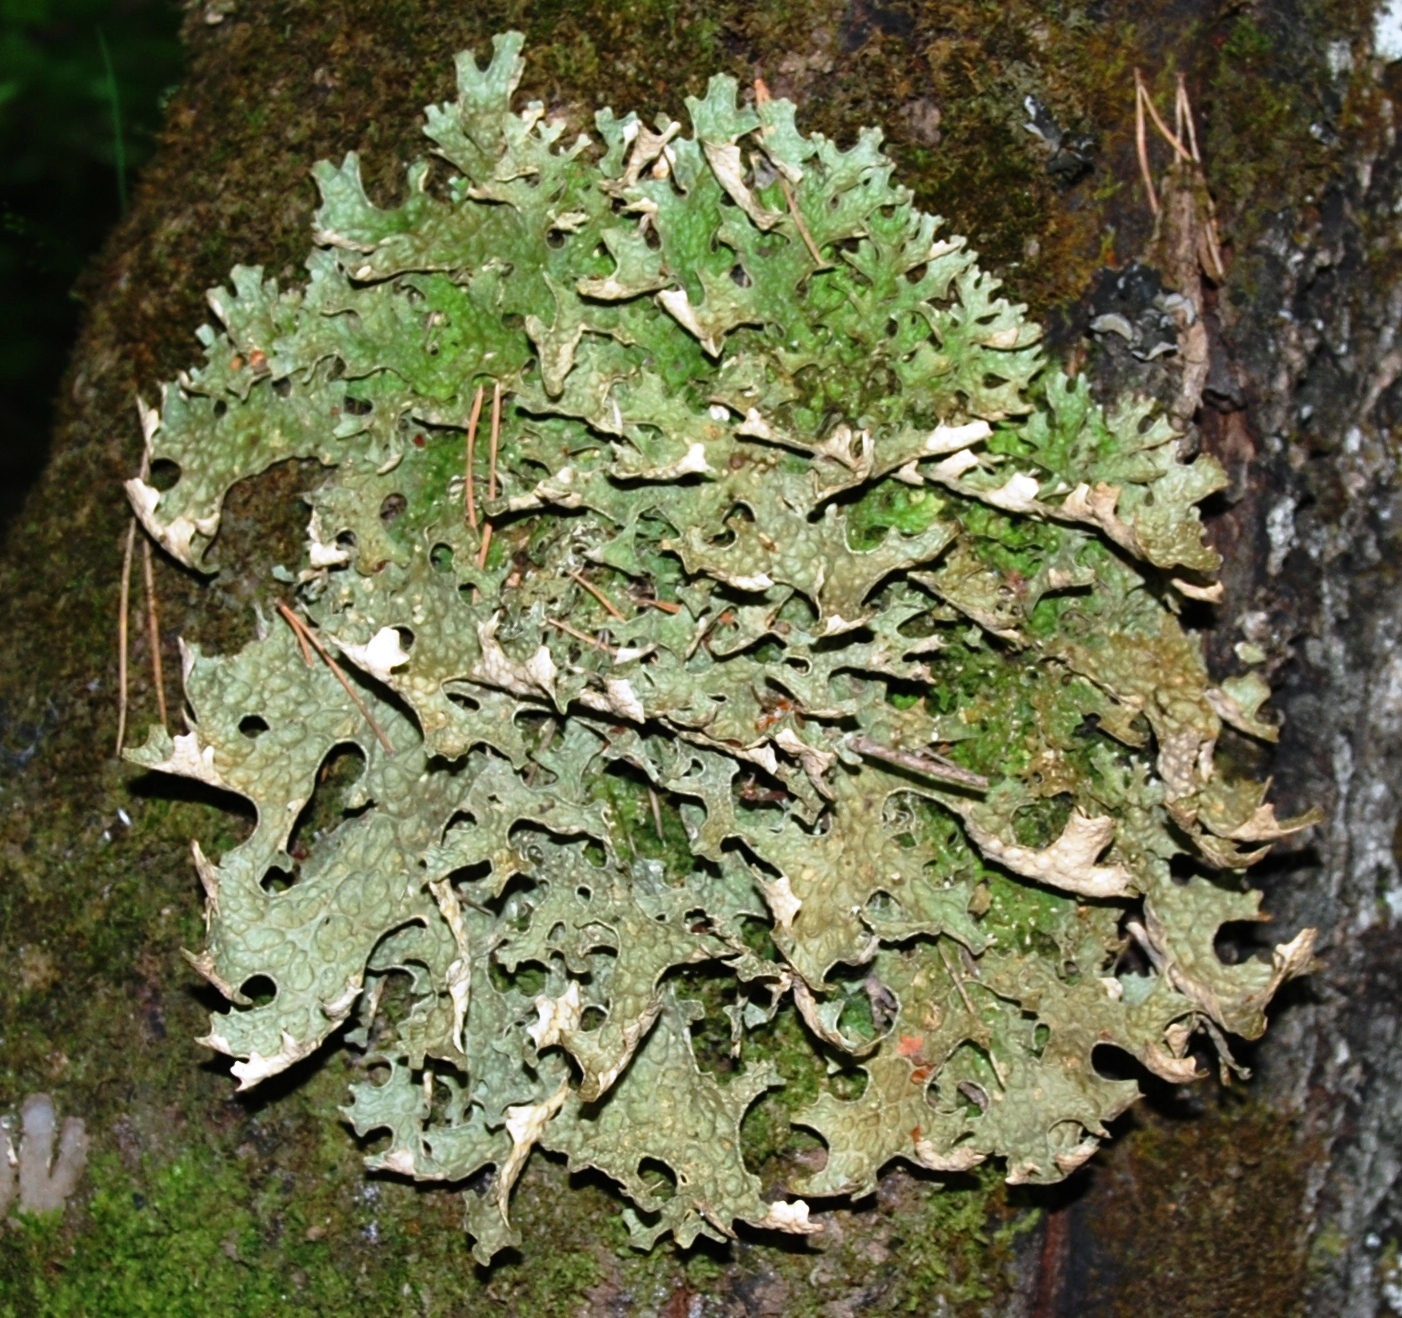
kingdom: Fungi
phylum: Ascomycota
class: Lecanoromycetes
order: Peltigerales
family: Lobariaceae
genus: Lobaria
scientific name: Lobaria pulmonaria
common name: Lungwort
